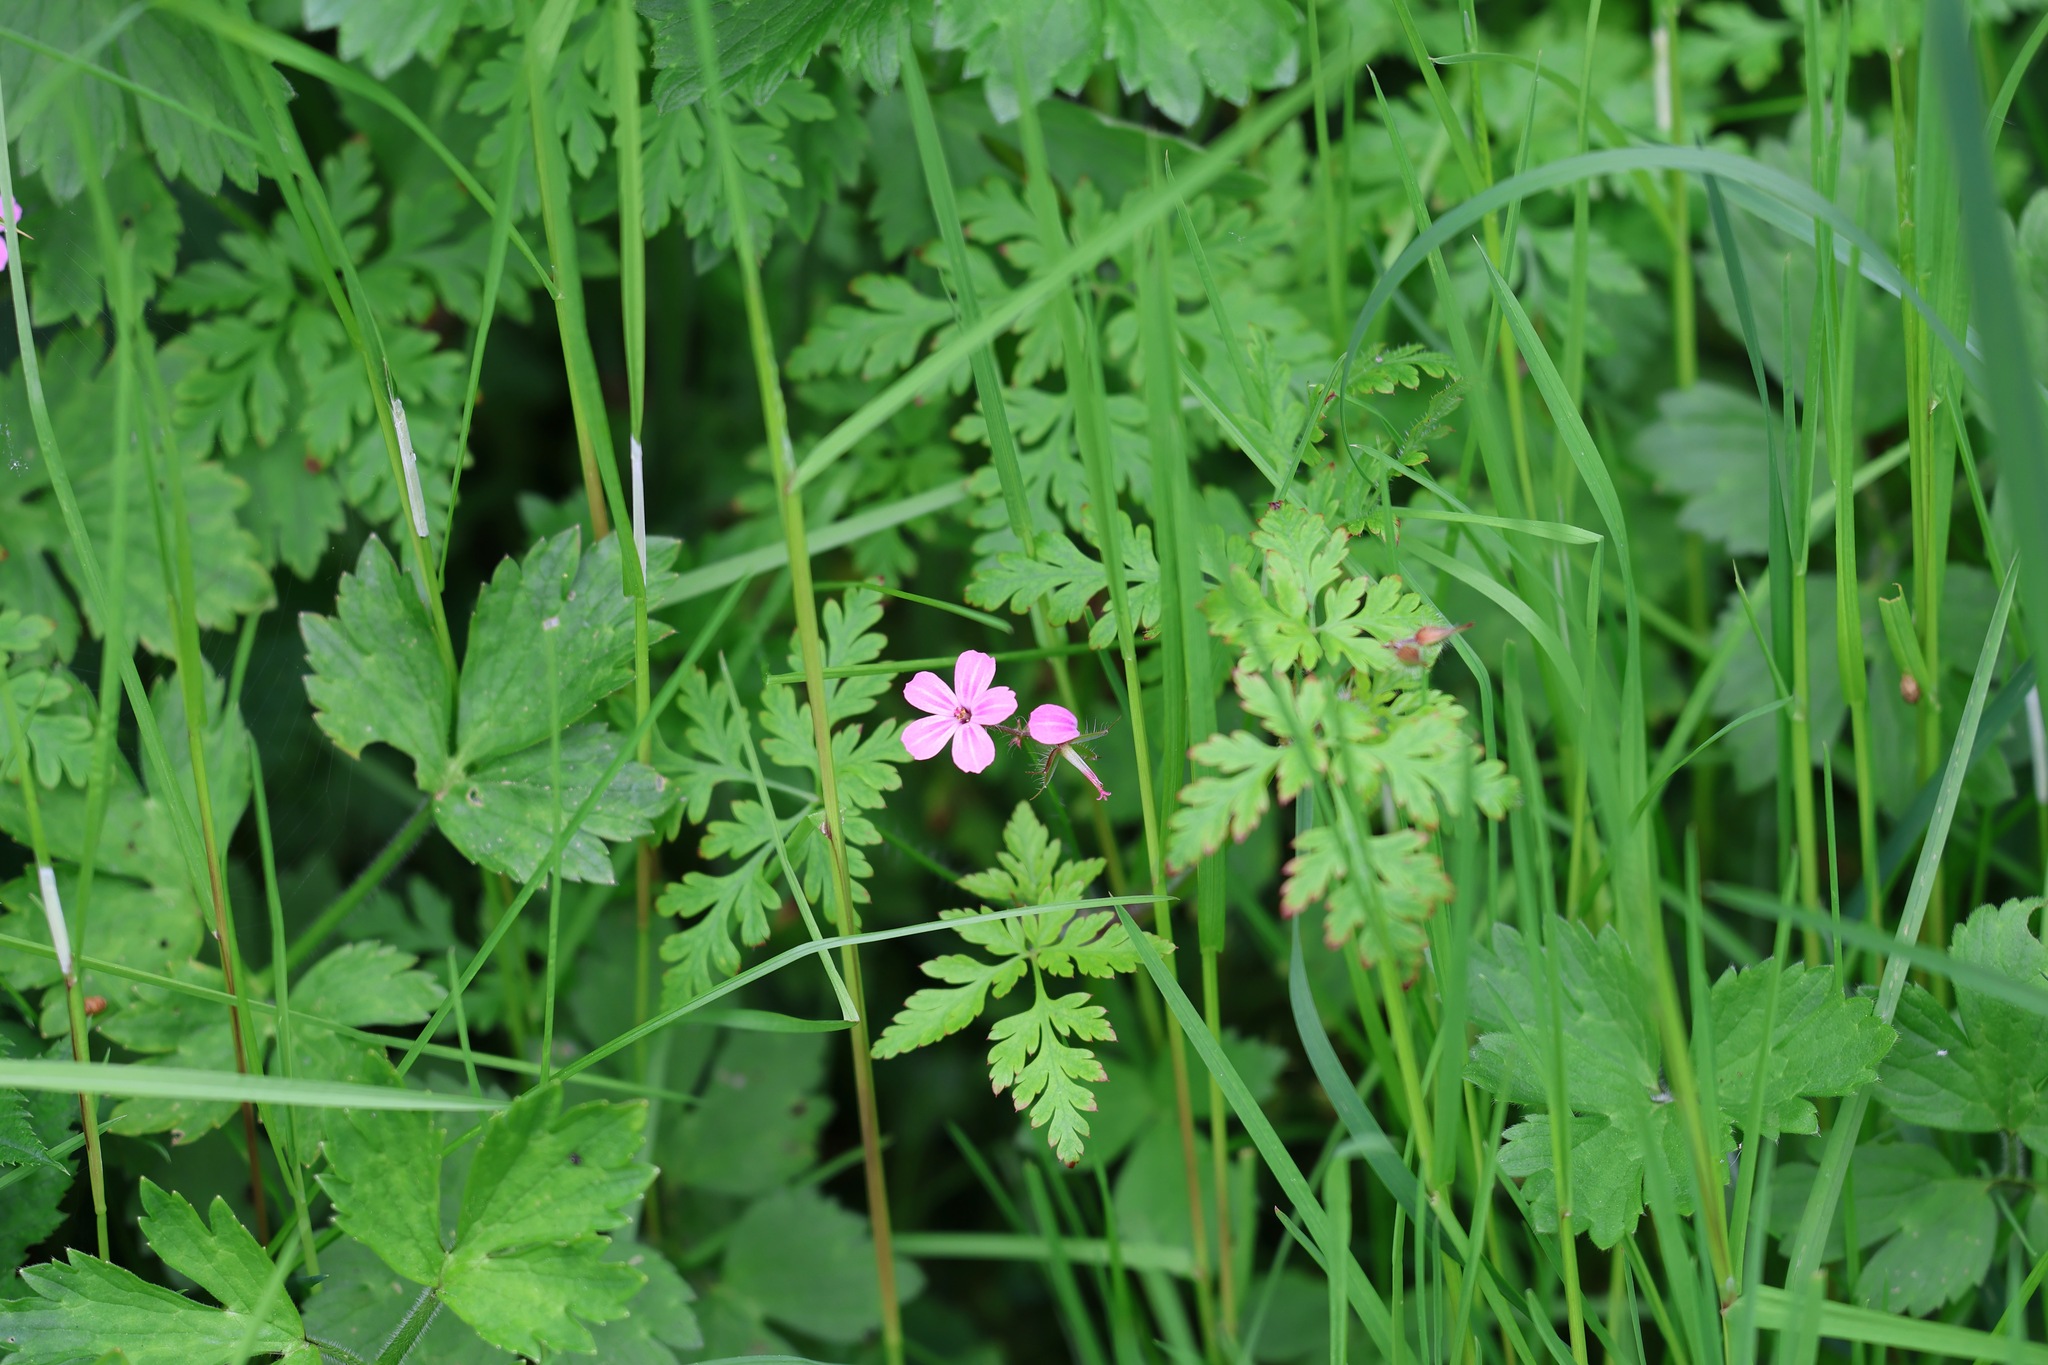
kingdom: Plantae
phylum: Tracheophyta
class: Magnoliopsida
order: Geraniales
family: Geraniaceae
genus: Geranium
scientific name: Geranium robertianum
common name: Herb-robert
